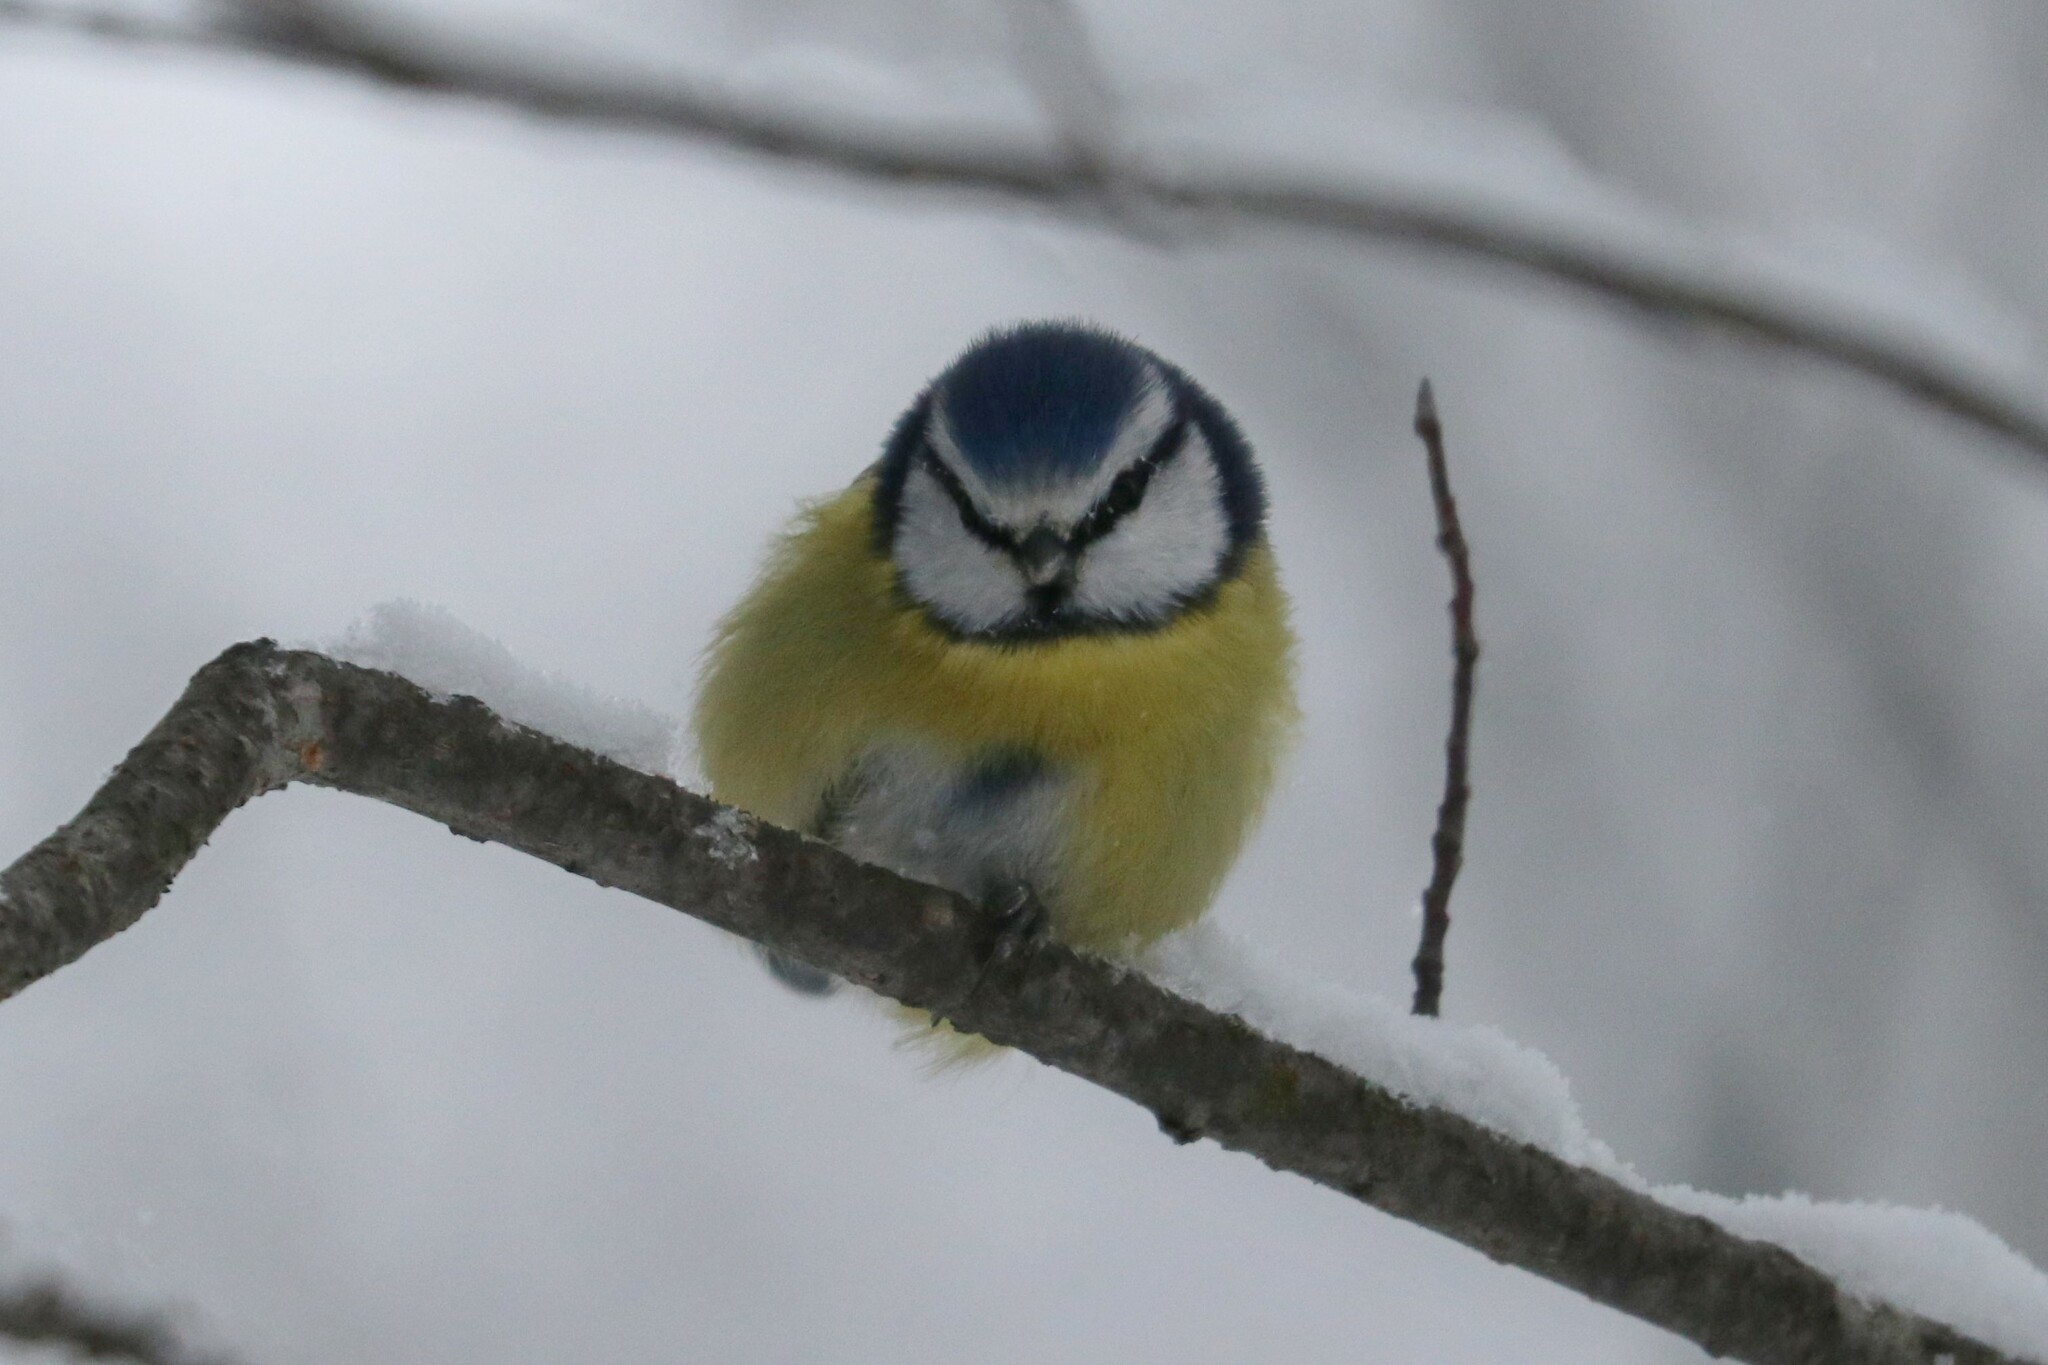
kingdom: Animalia
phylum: Chordata
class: Aves
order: Passeriformes
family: Paridae
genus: Cyanistes
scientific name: Cyanistes caeruleus
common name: Eurasian blue tit
